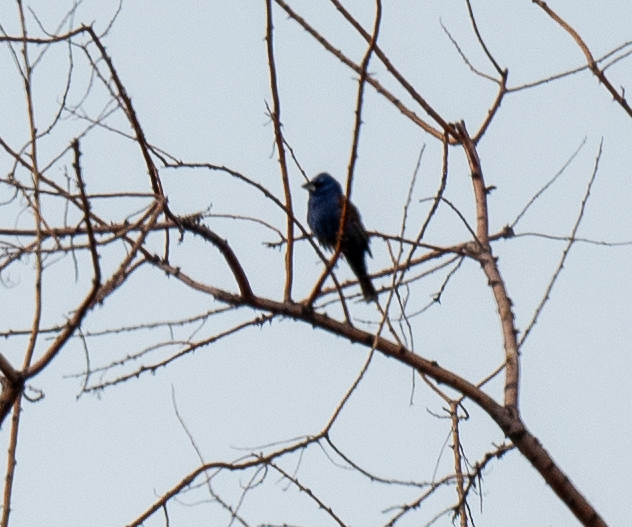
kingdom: Animalia
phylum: Chordata
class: Aves
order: Passeriformes
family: Cardinalidae
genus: Passerina
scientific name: Passerina caerulea
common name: Blue grosbeak
